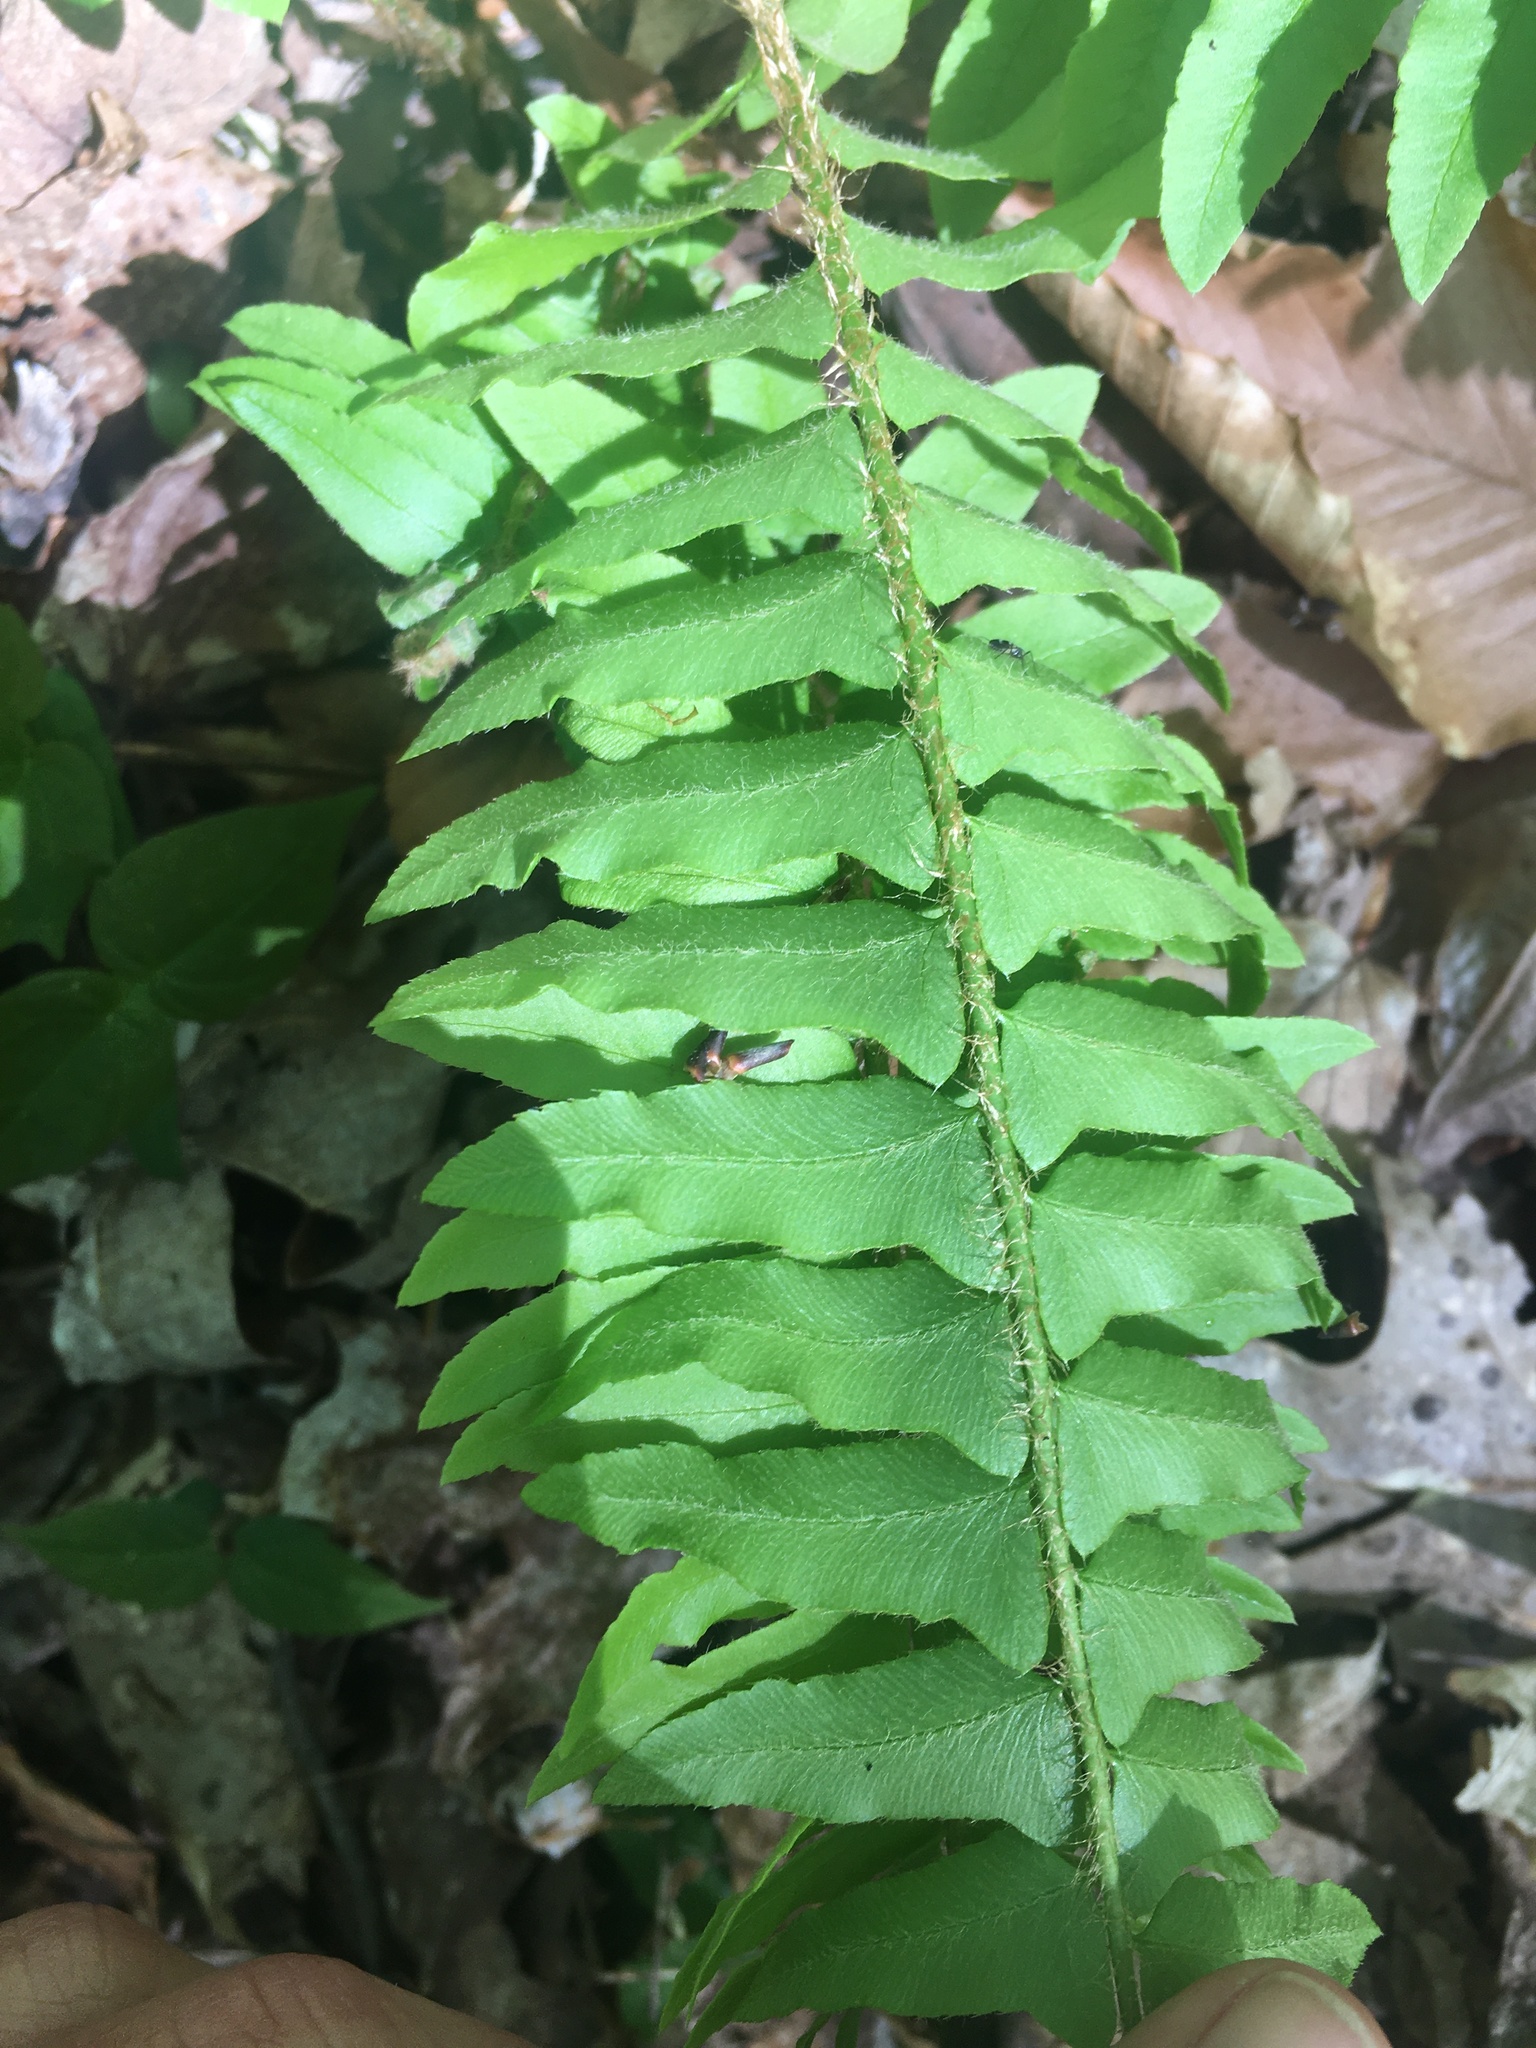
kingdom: Plantae
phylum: Tracheophyta
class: Polypodiopsida
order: Polypodiales
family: Dryopteridaceae
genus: Polystichum
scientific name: Polystichum acrostichoides
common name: Christmas fern
